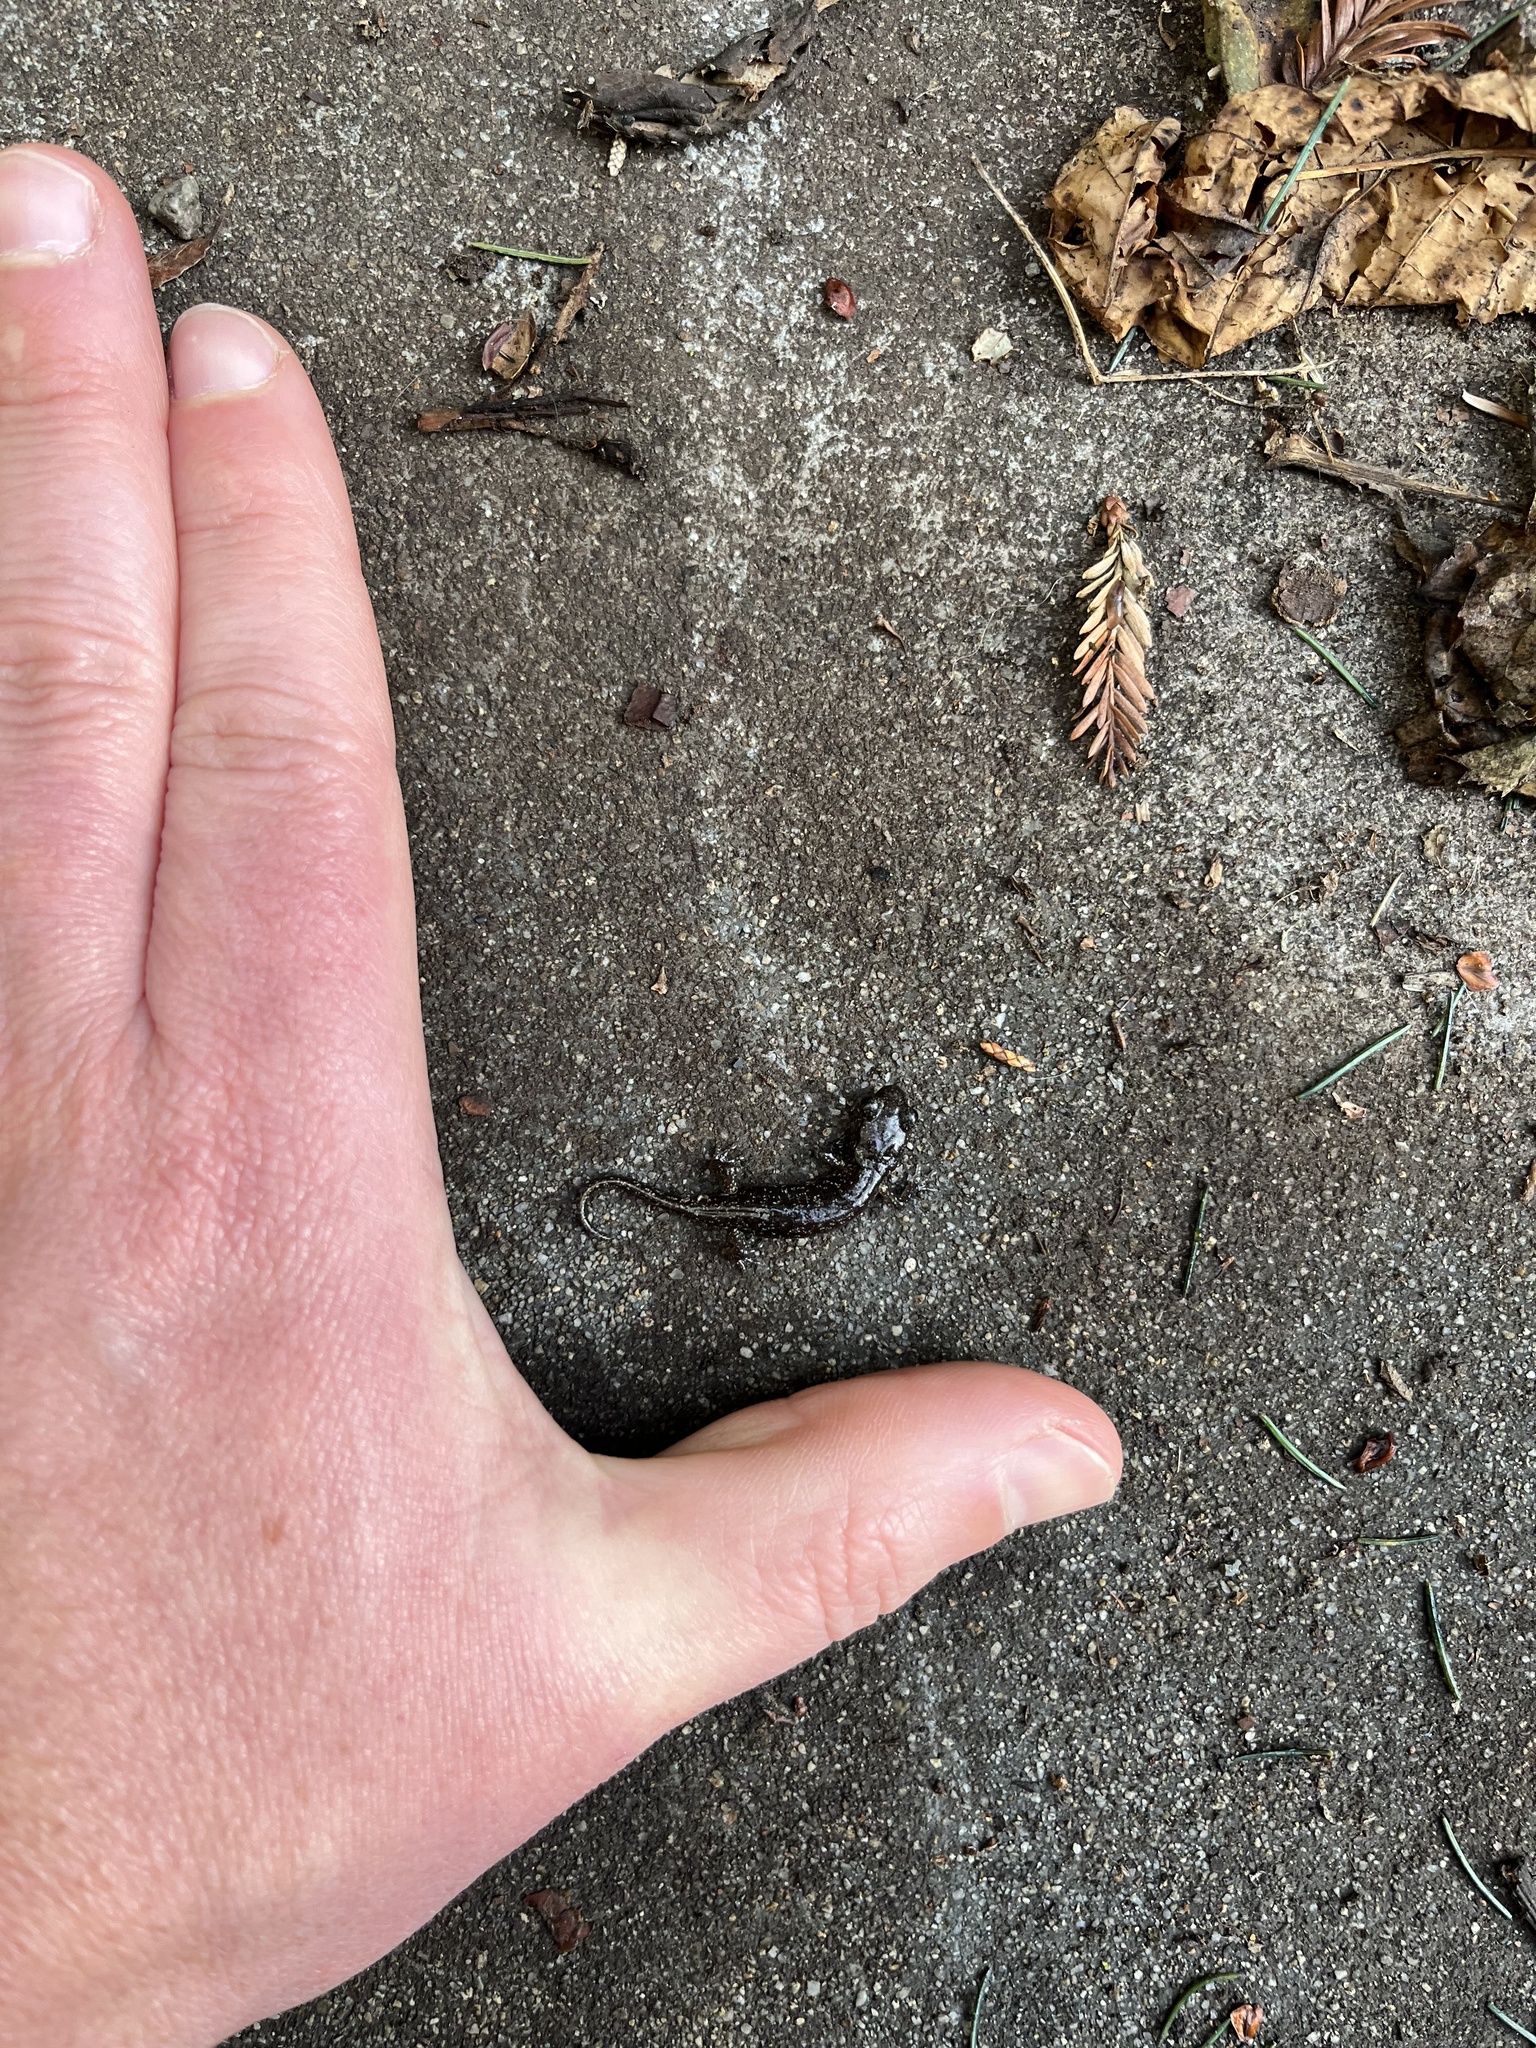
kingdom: Animalia
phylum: Chordata
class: Amphibia
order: Caudata
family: Plethodontidae
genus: Aneides
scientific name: Aneides lugubris
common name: Arboreal salamander
